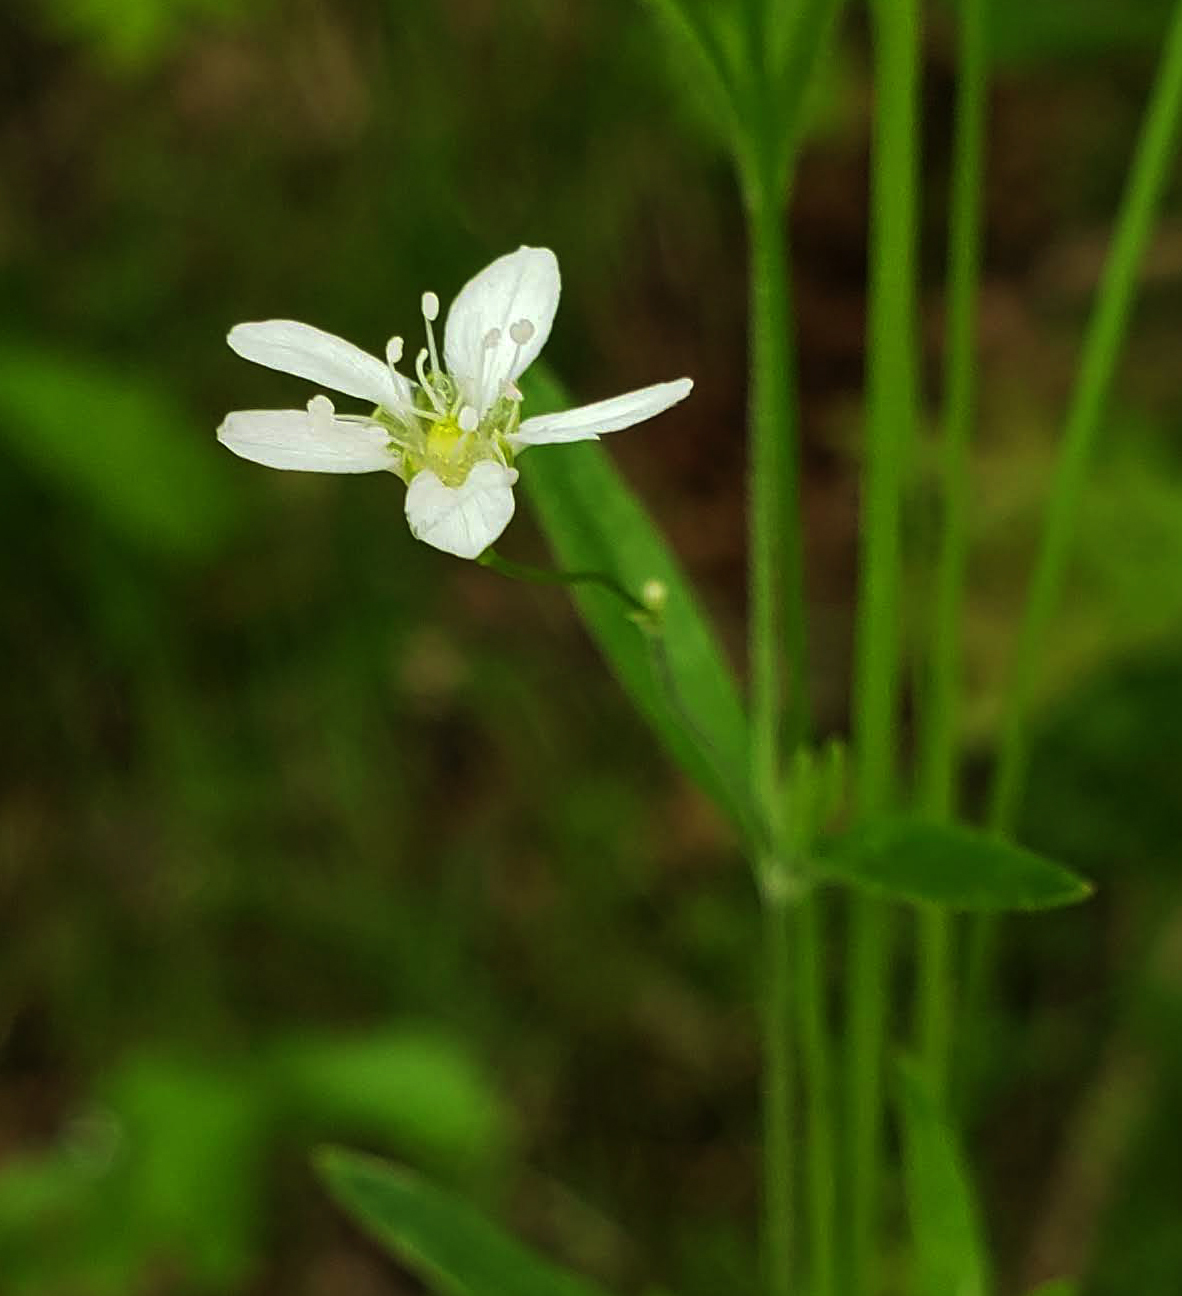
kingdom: Plantae
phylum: Tracheophyta
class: Magnoliopsida
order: Caryophyllales
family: Caryophyllaceae
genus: Moehringia
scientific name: Moehringia lateriflora
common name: Blunt-leaved sandwort
